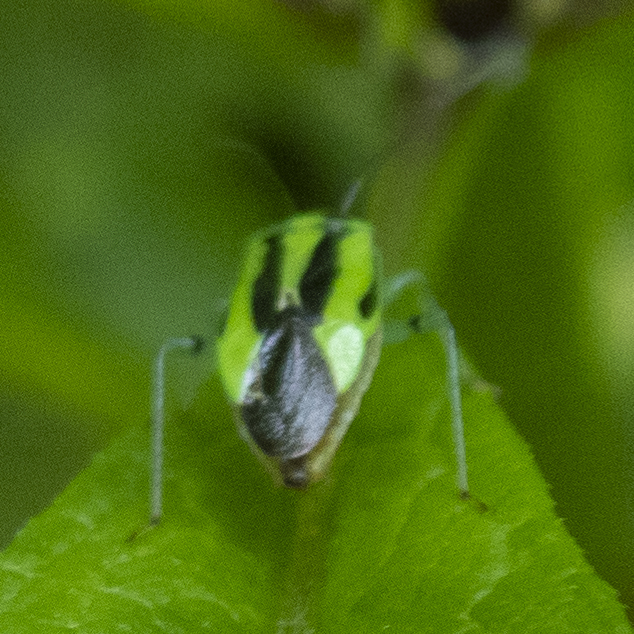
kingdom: Animalia
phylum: Arthropoda
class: Insecta
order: Hemiptera
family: Miridae
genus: Poecilocapsus
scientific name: Poecilocapsus lineatus
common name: Four-lined plant bug
